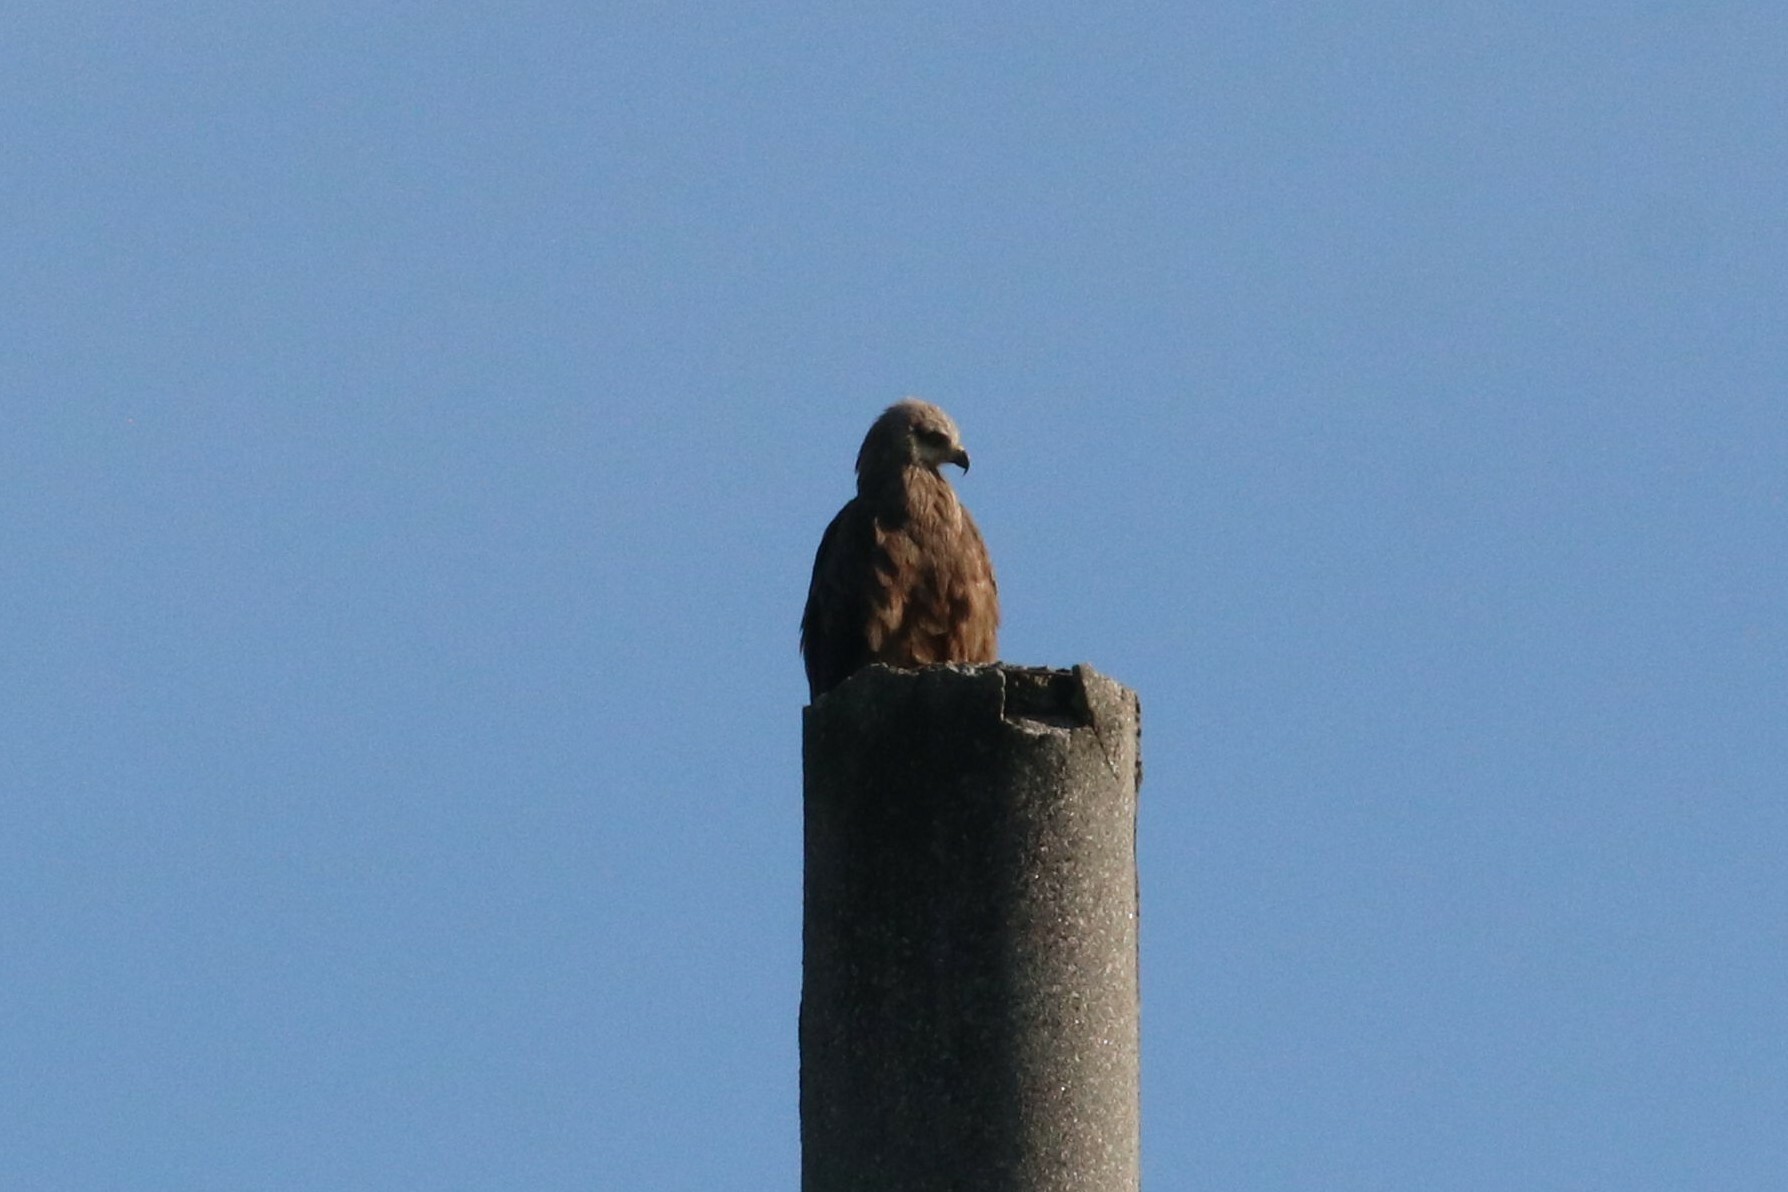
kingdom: Animalia
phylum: Chordata
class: Aves
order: Accipitriformes
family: Accipitridae
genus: Milvus
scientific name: Milvus migrans
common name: Black kite
